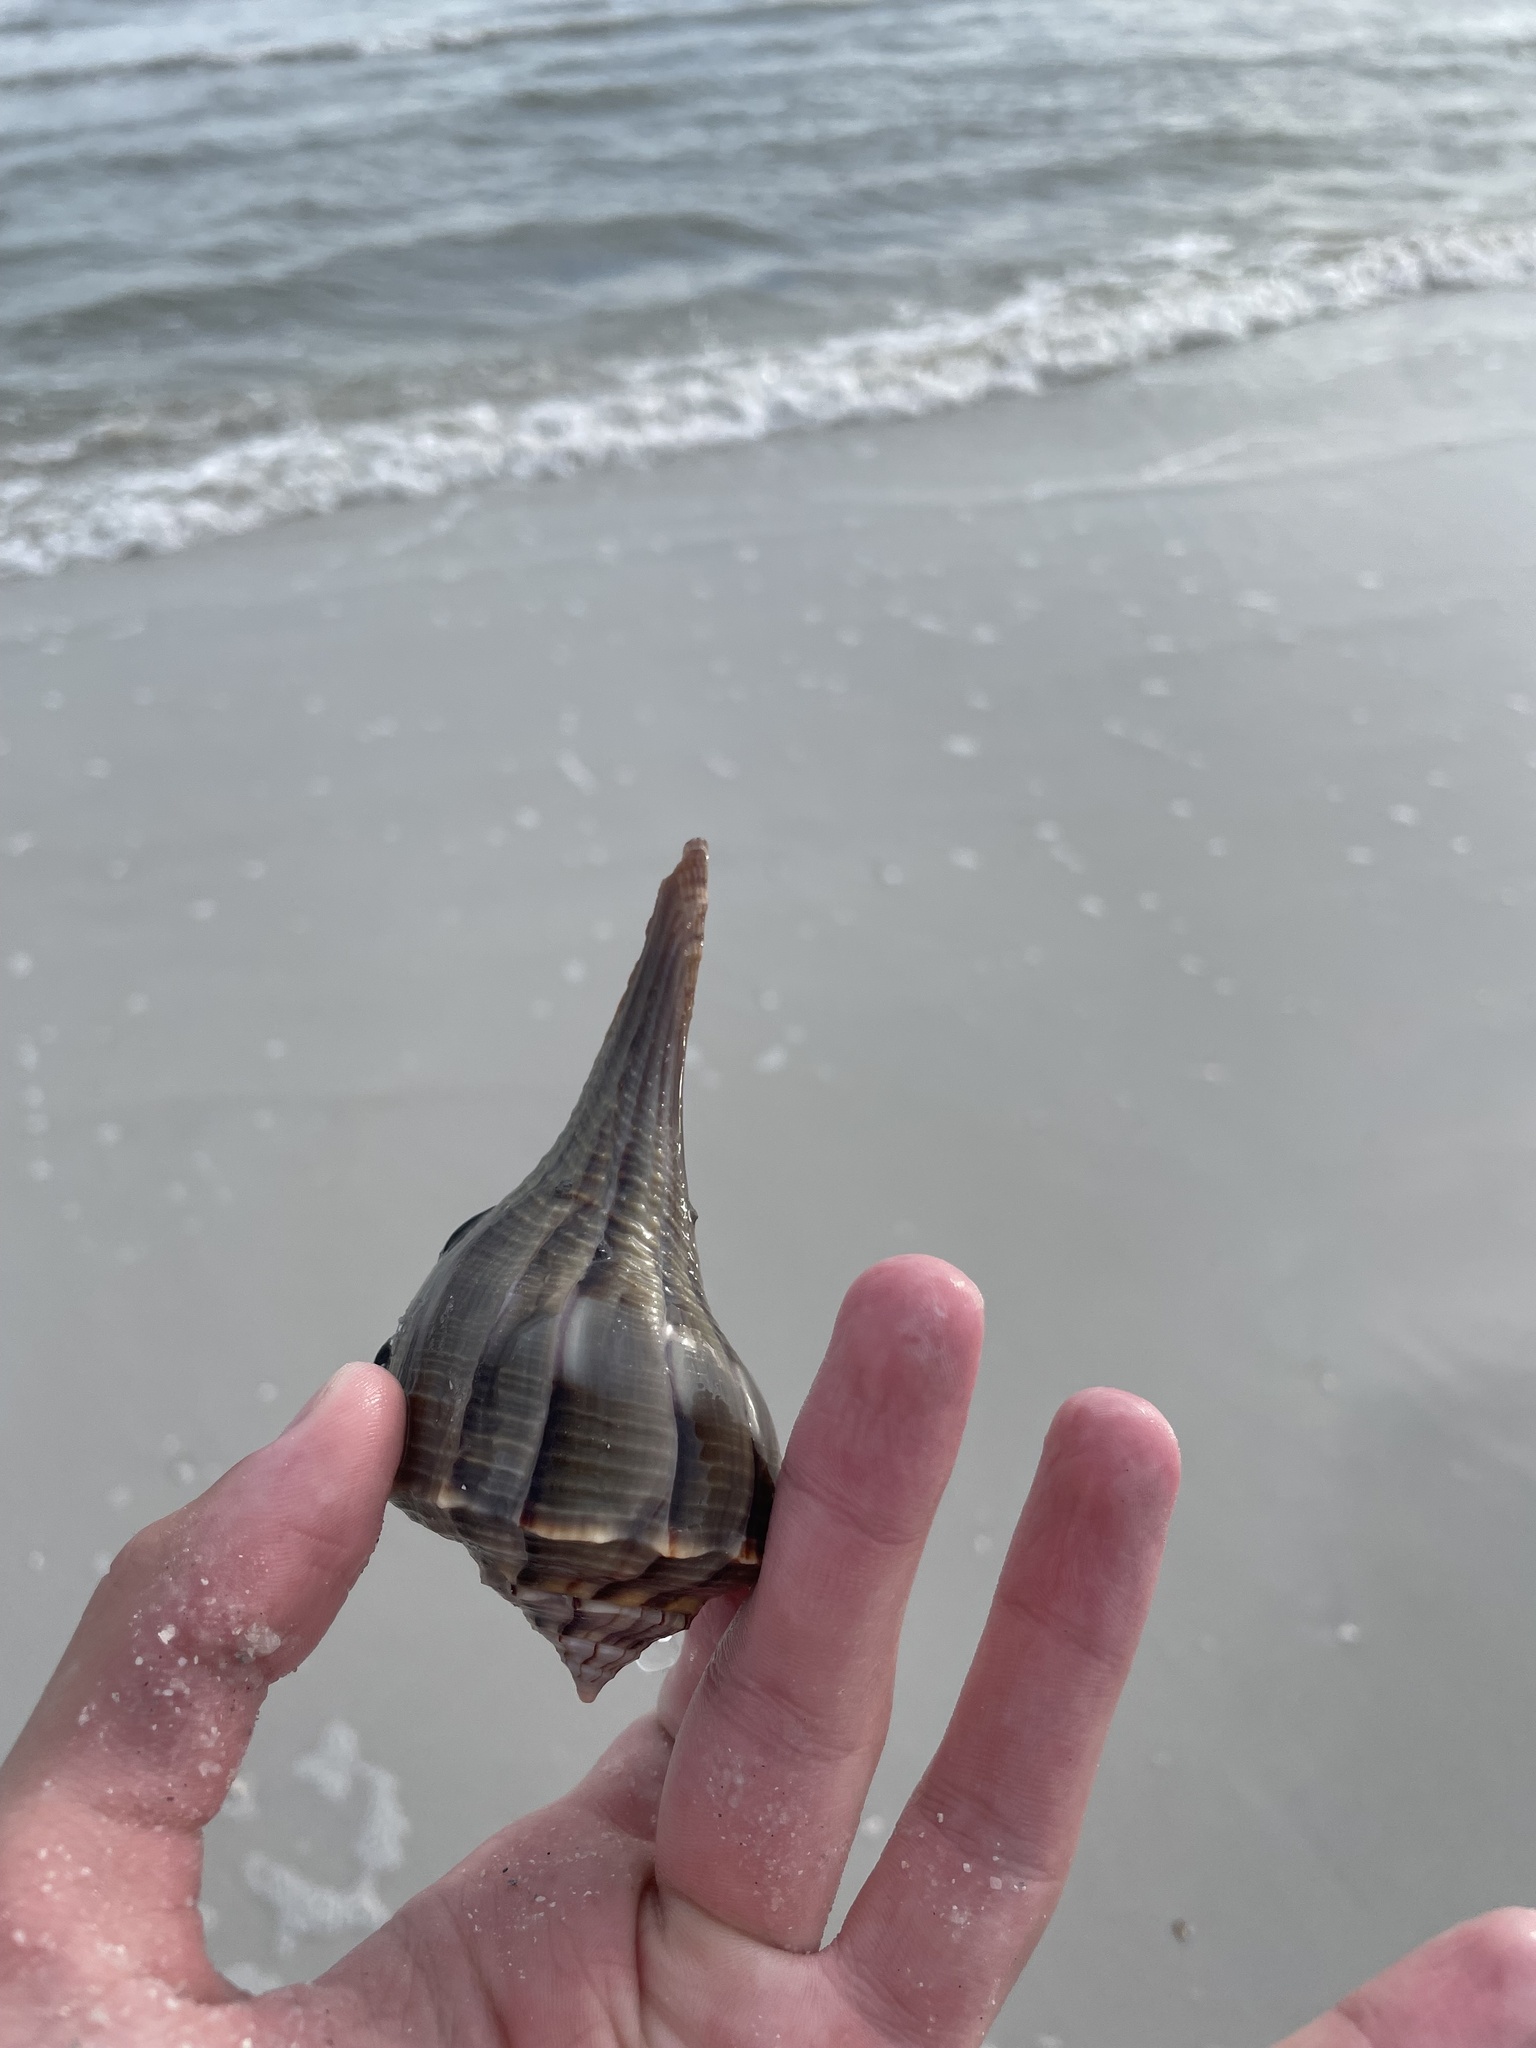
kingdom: Animalia
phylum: Mollusca
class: Gastropoda
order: Neogastropoda
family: Busyconidae
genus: Sinistrofulgur
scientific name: Sinistrofulgur sinistrum
